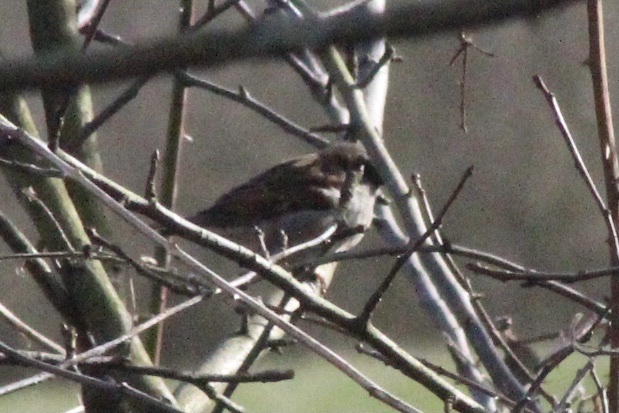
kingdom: Animalia
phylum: Chordata
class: Aves
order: Passeriformes
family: Passeridae
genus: Passer
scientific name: Passer domesticus
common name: House sparrow
